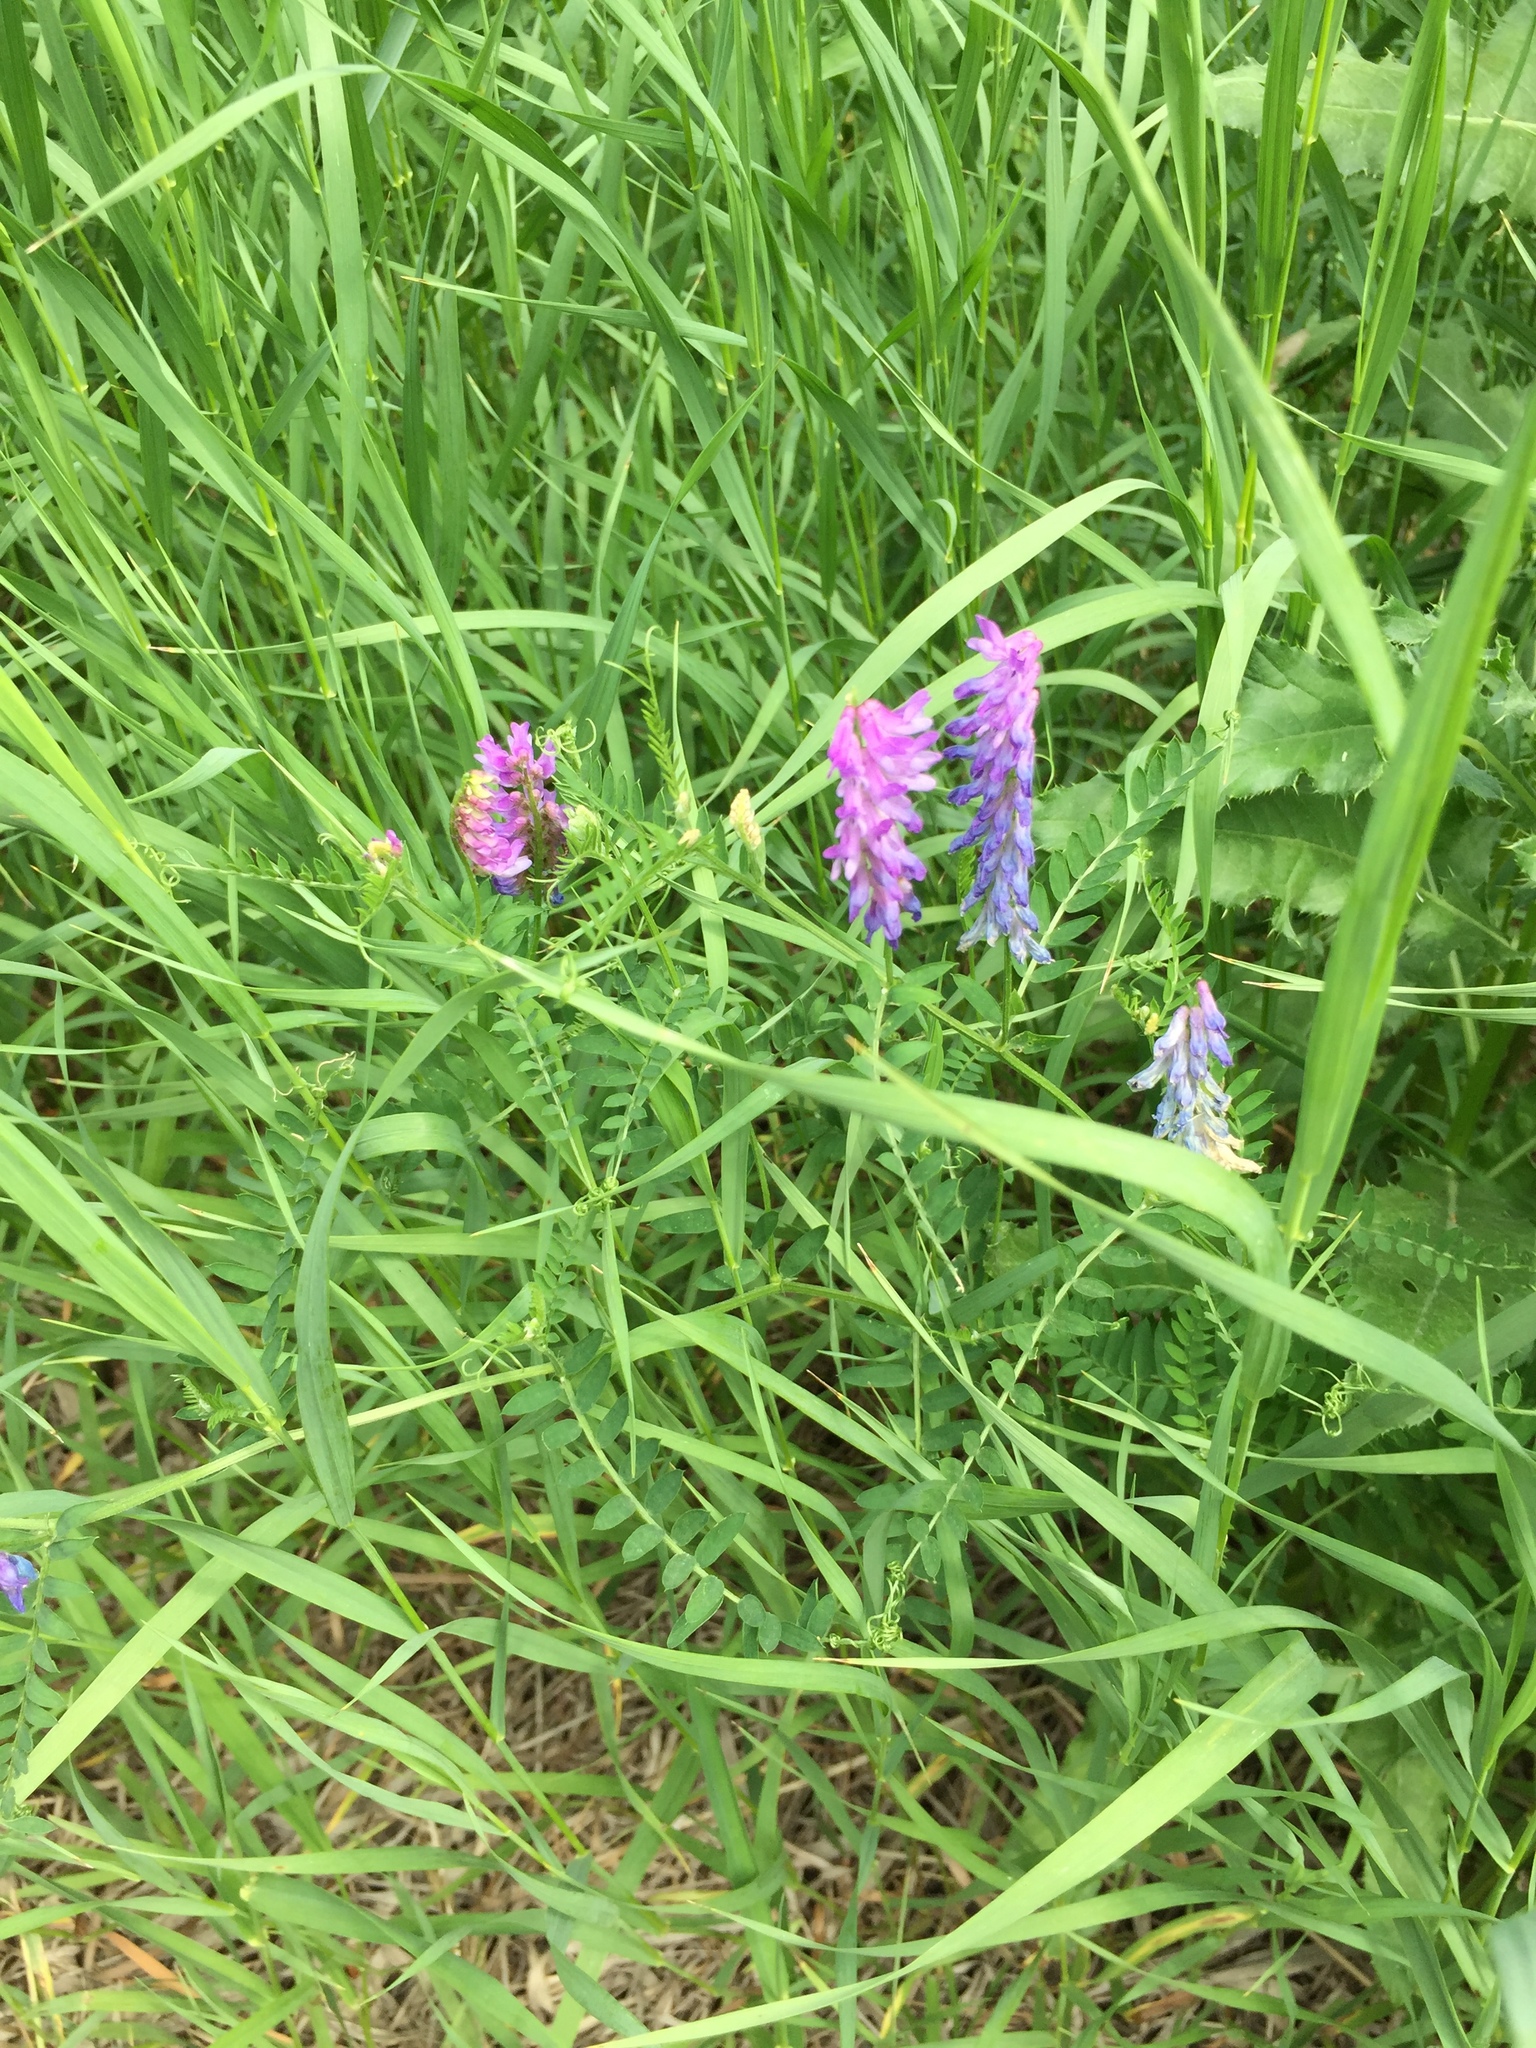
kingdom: Plantae
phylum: Tracheophyta
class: Magnoliopsida
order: Fabales
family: Fabaceae
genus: Vicia
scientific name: Vicia cracca
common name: Bird vetch
